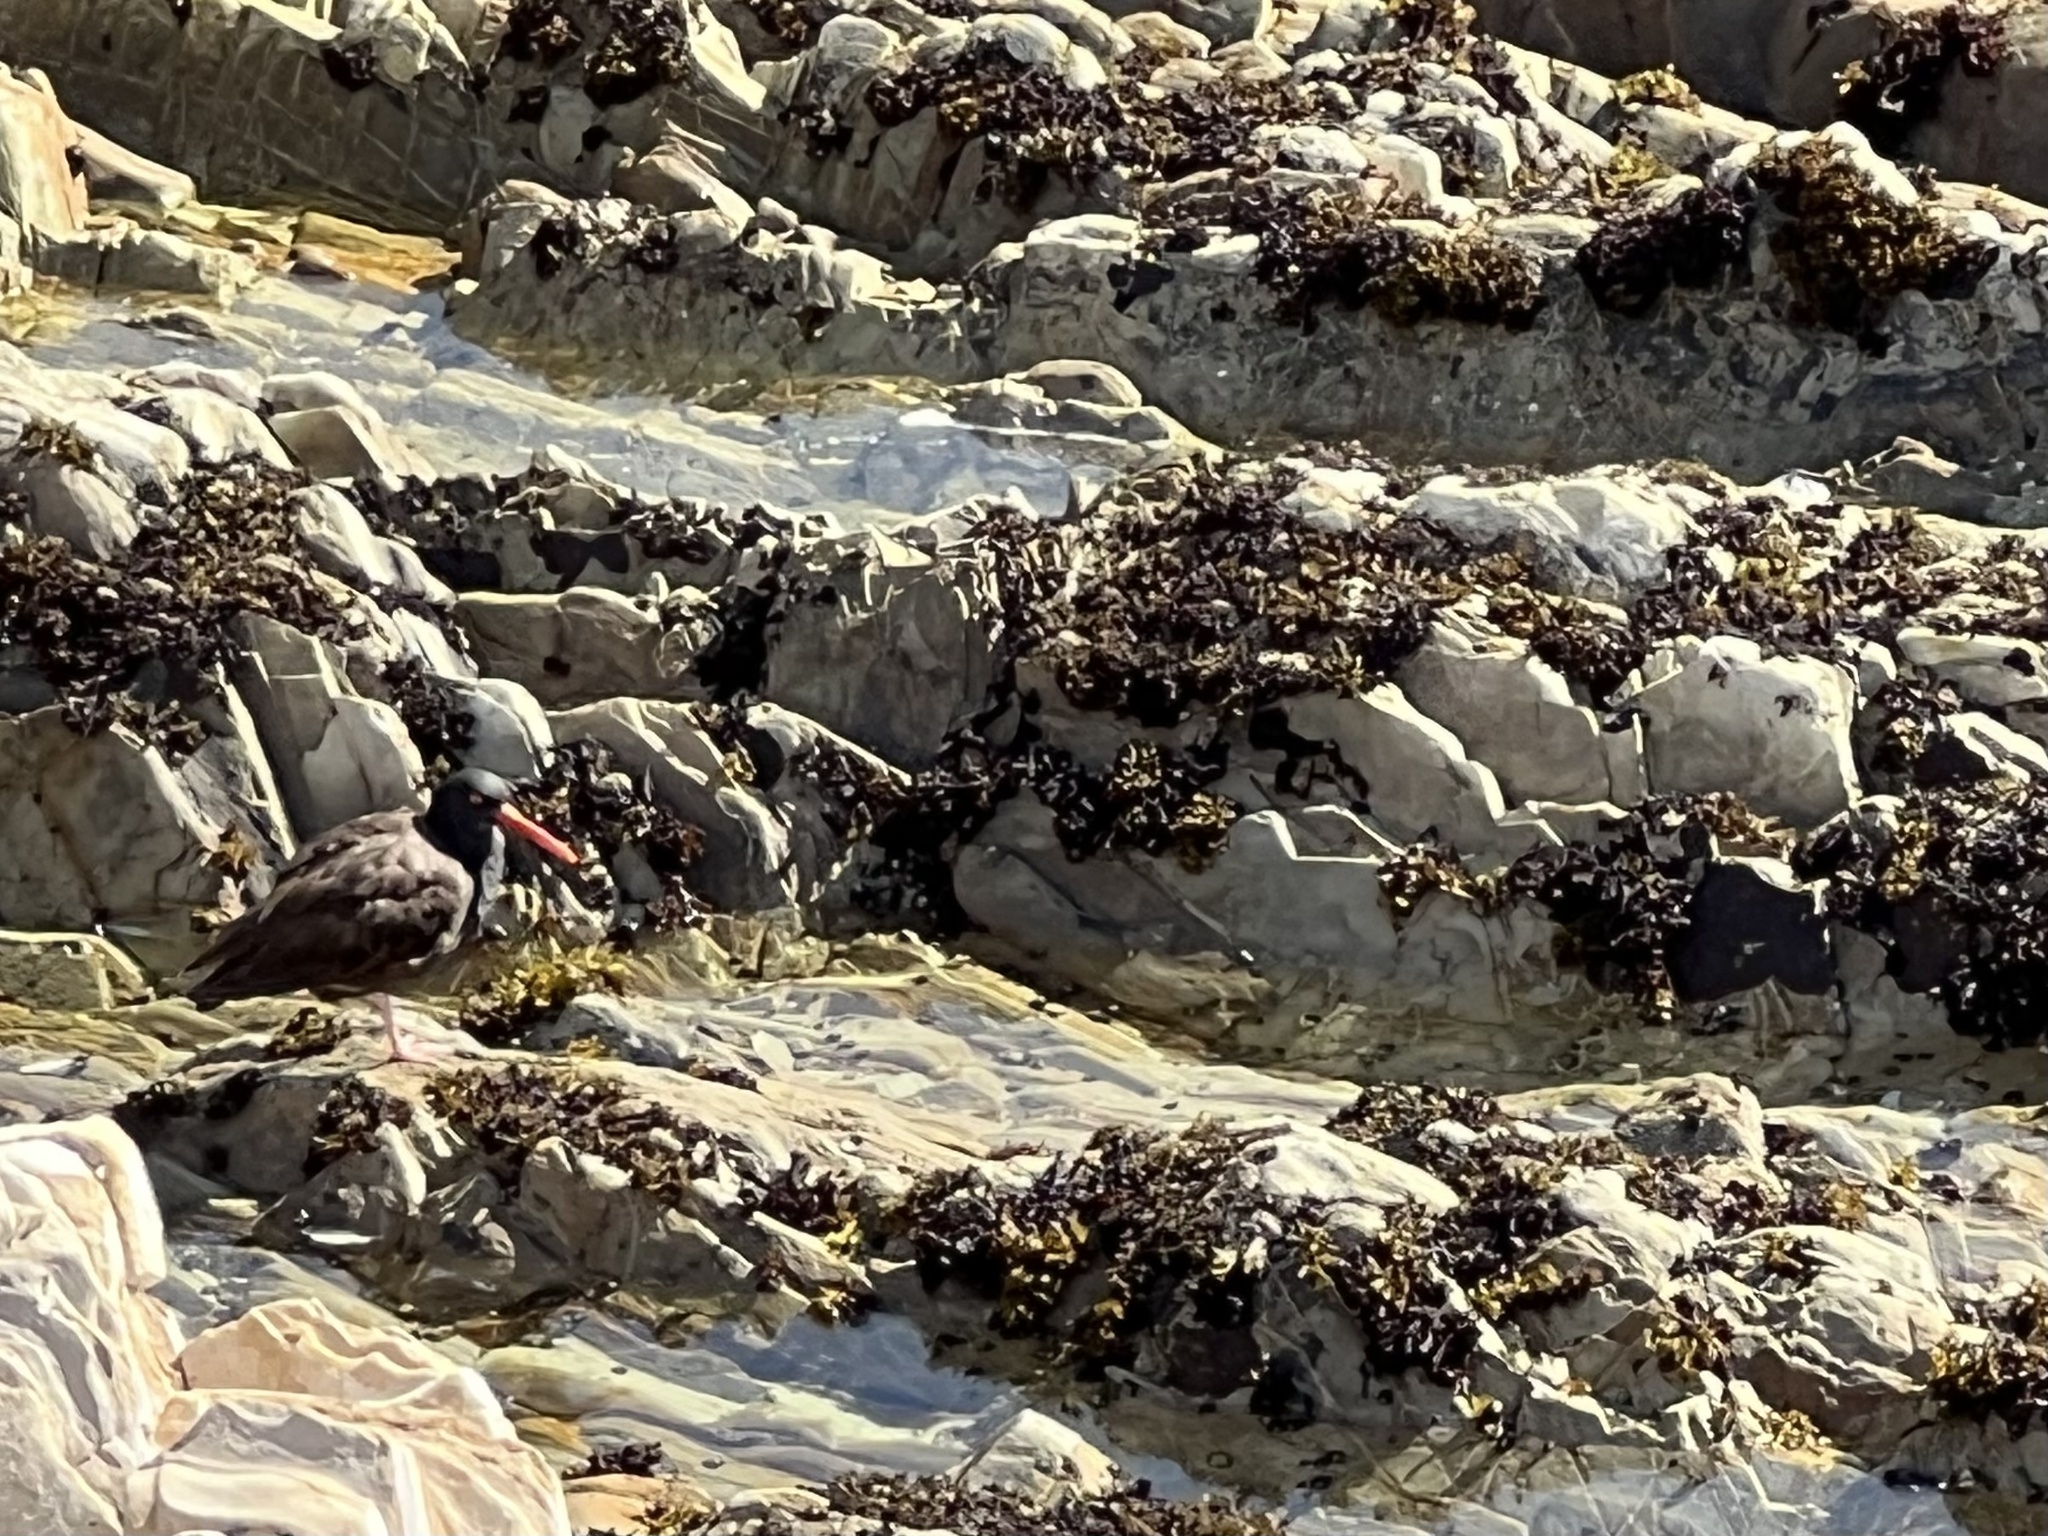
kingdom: Animalia
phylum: Chordata
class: Aves
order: Charadriiformes
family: Haematopodidae
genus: Haematopus
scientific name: Haematopus bachmani
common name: Black oystercatcher
